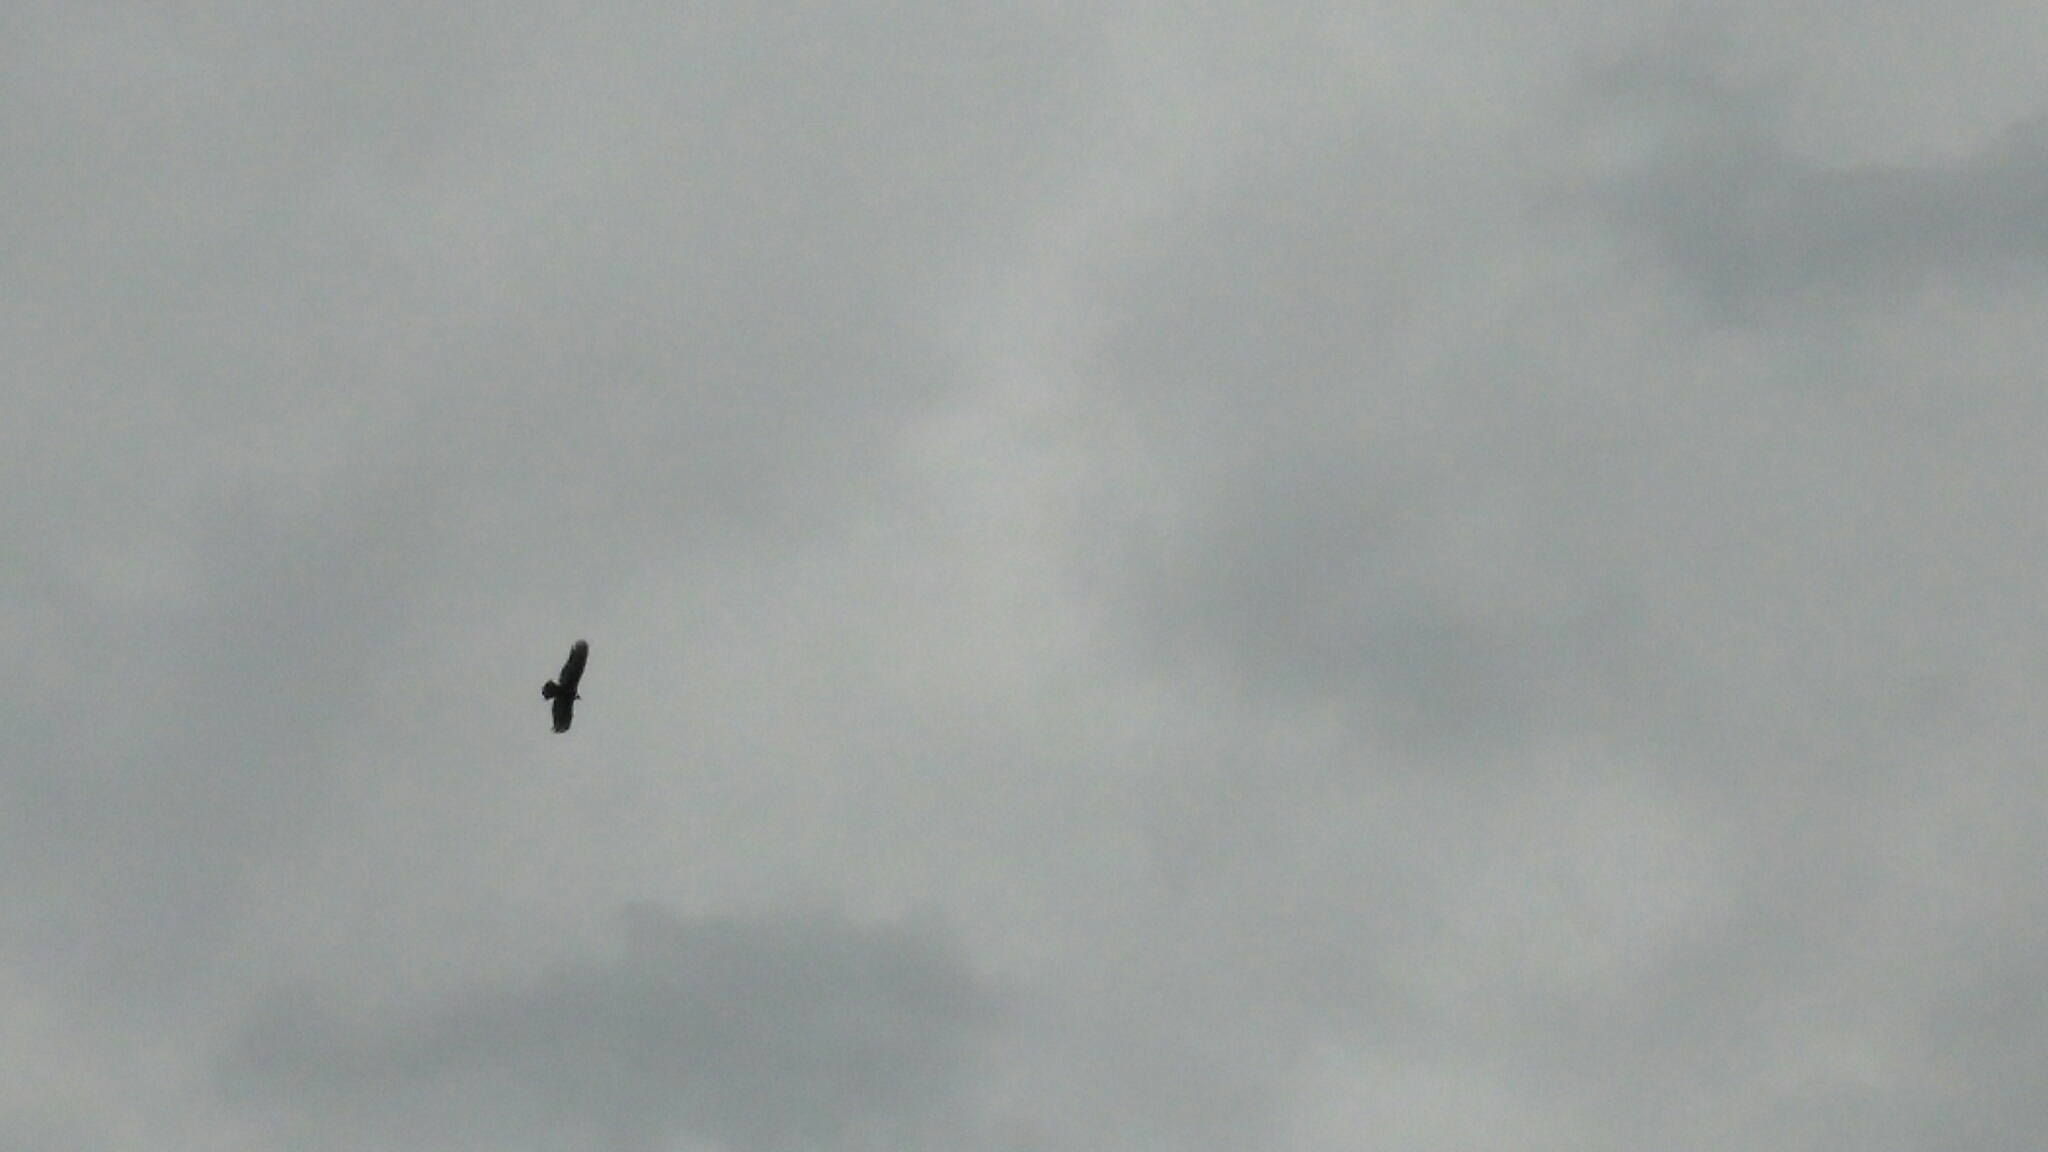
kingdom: Animalia
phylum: Chordata
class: Aves
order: Accipitriformes
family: Cathartidae
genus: Cathartes
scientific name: Cathartes aura
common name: Turkey vulture
